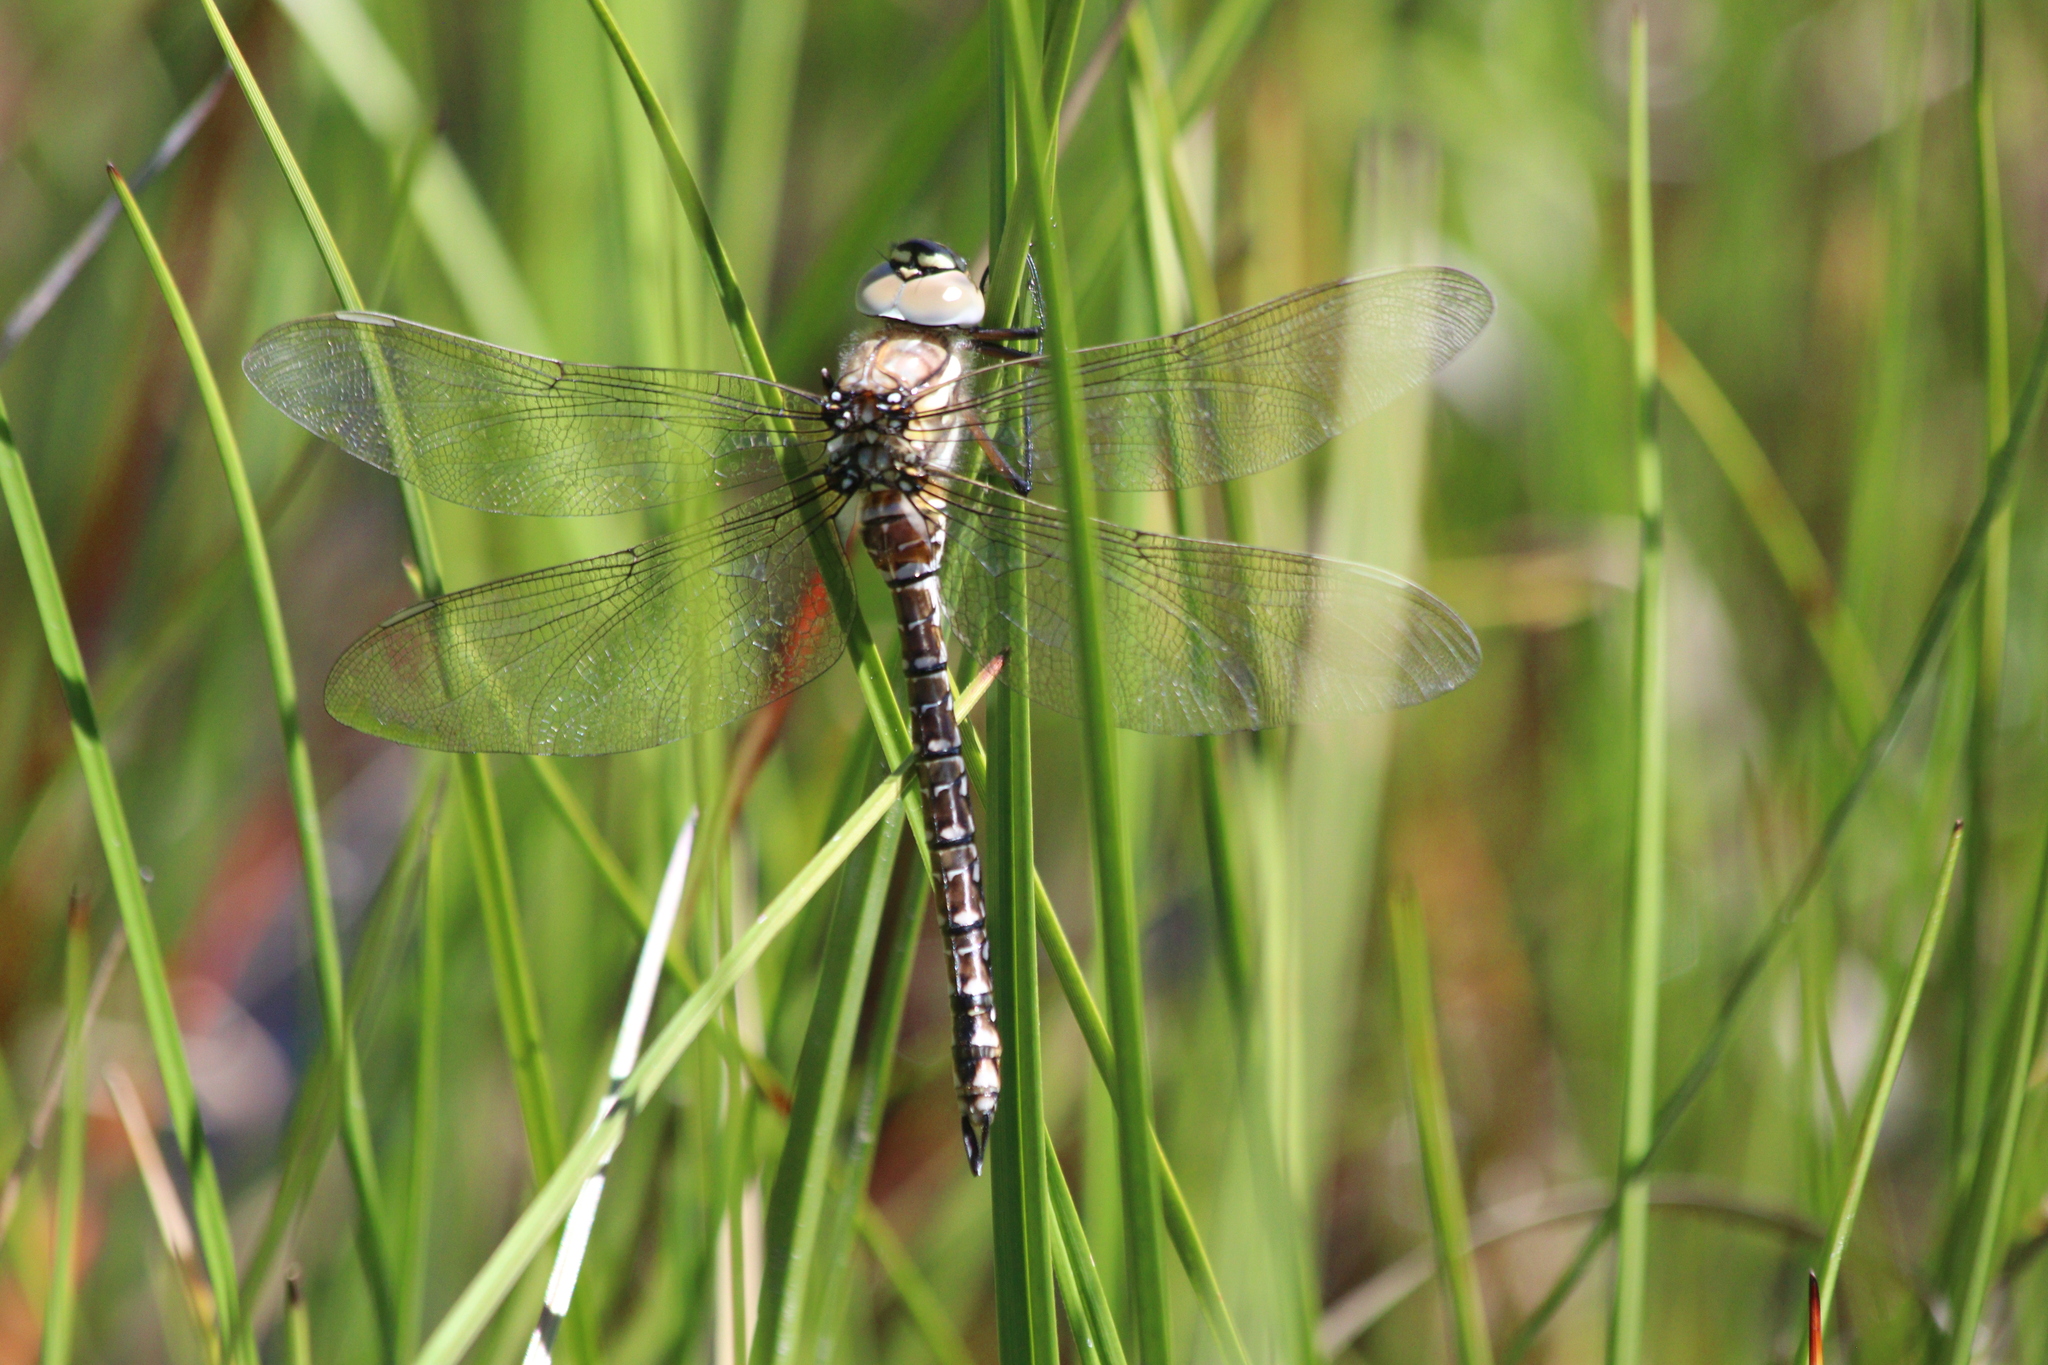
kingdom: Animalia
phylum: Arthropoda
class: Insecta
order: Odonata
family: Aeshnidae
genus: Aeshna
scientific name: Aeshna juncea
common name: Moorland hawker
